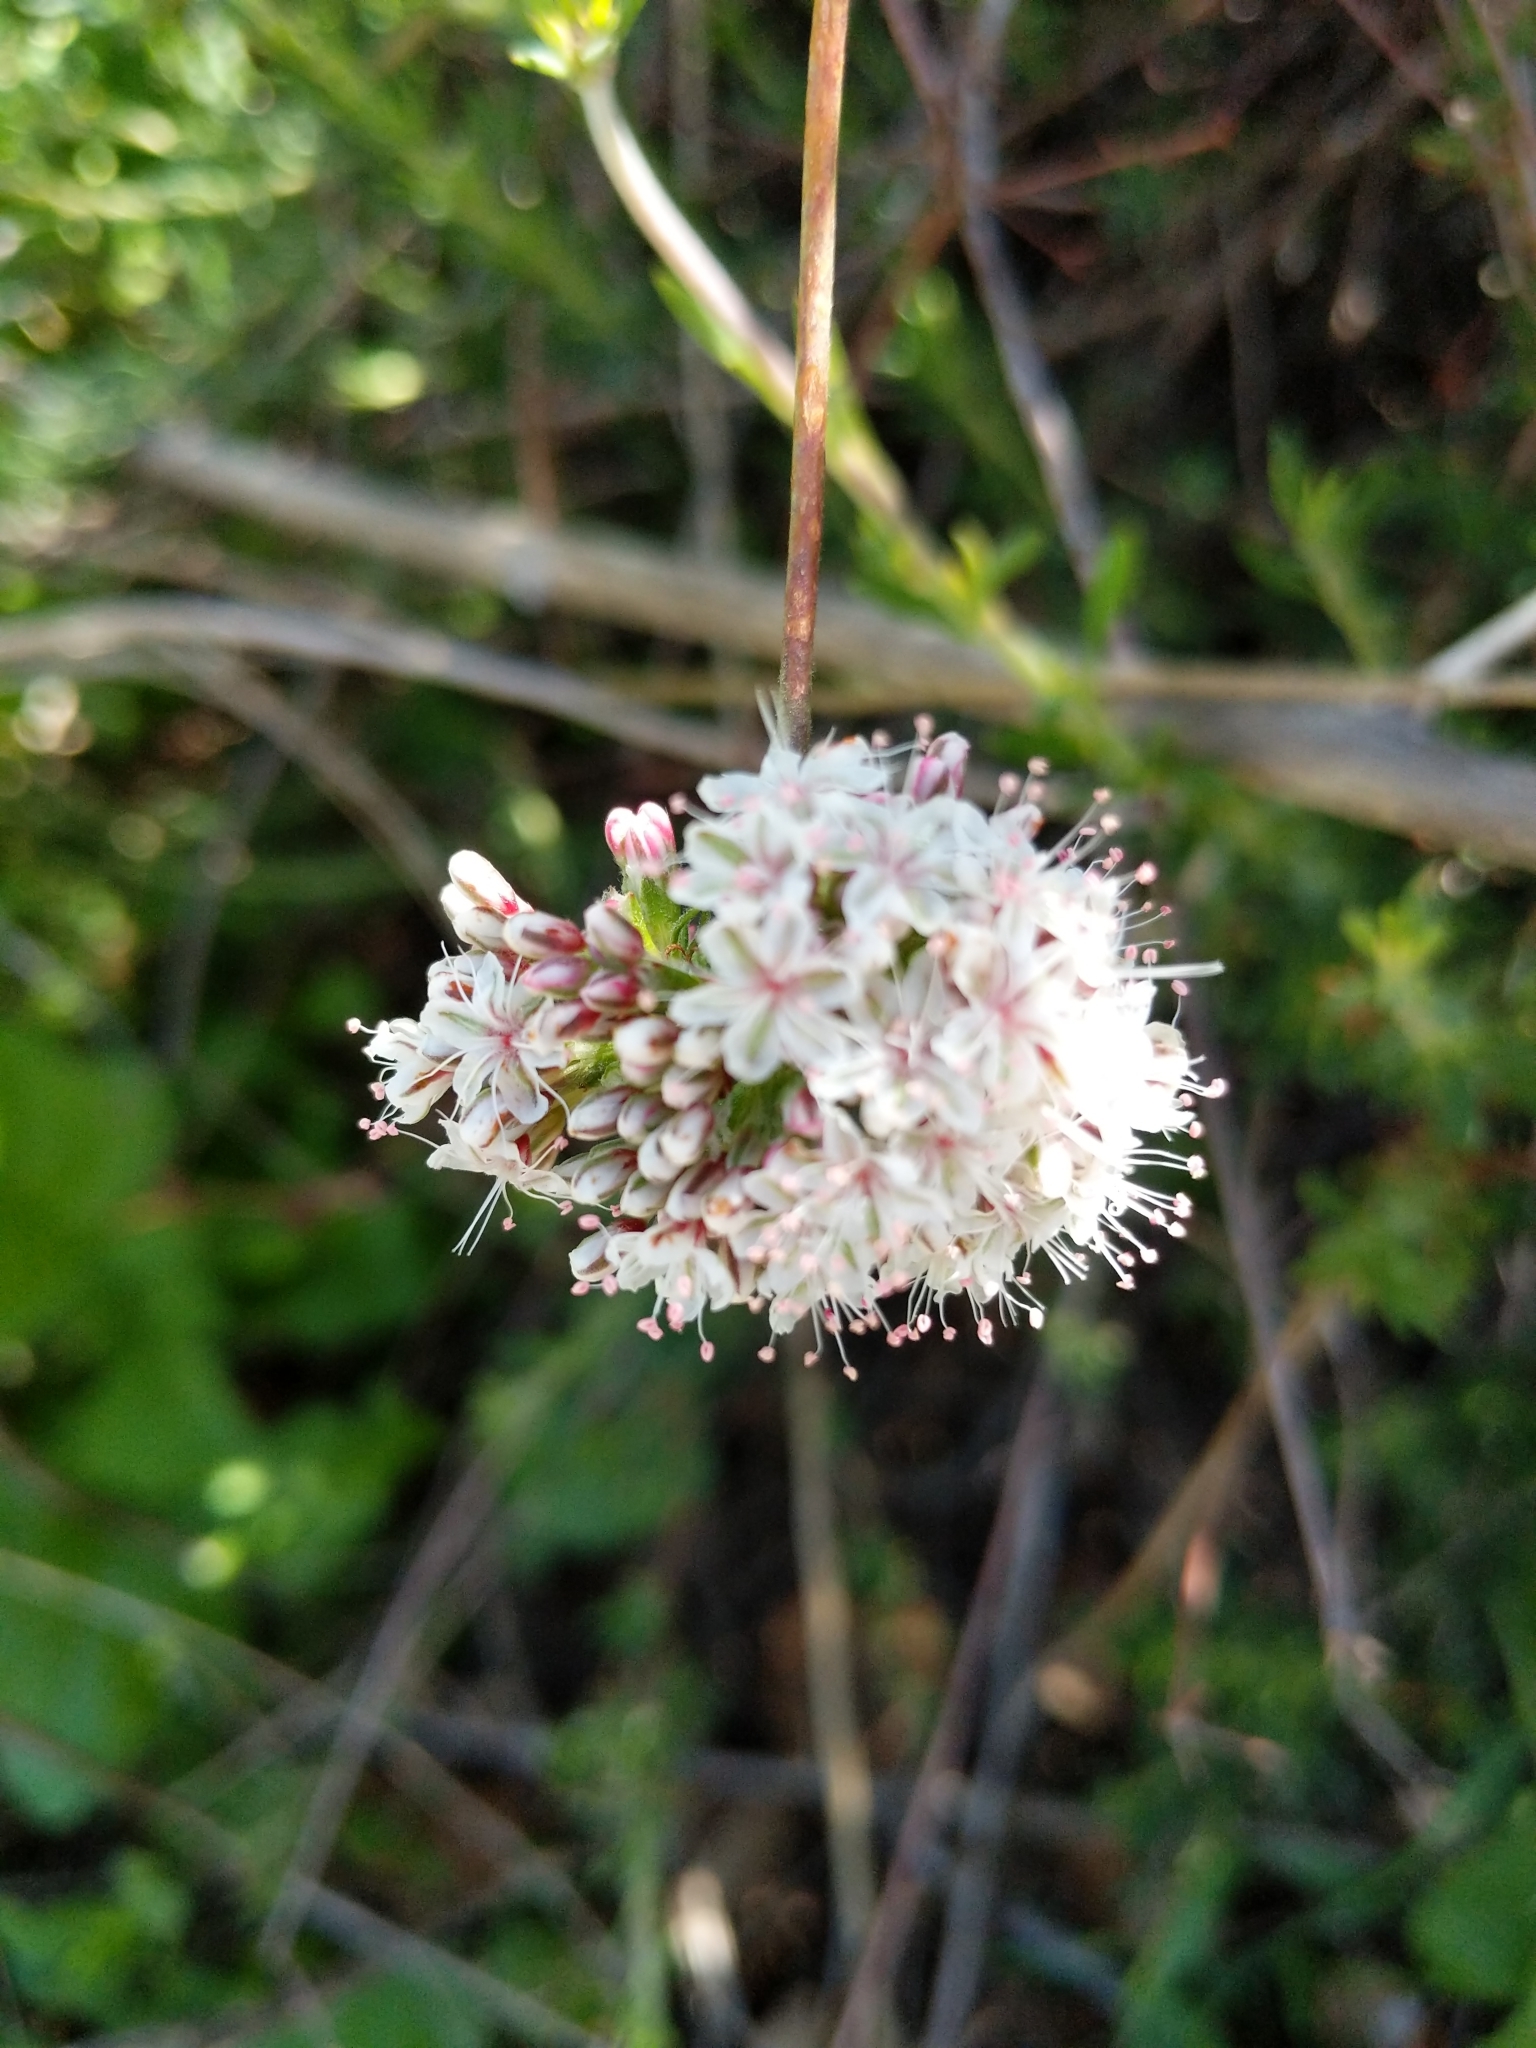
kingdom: Plantae
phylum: Tracheophyta
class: Magnoliopsida
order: Caryophyllales
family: Polygonaceae
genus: Eriogonum
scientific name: Eriogonum fasciculatum
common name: California wild buckwheat
